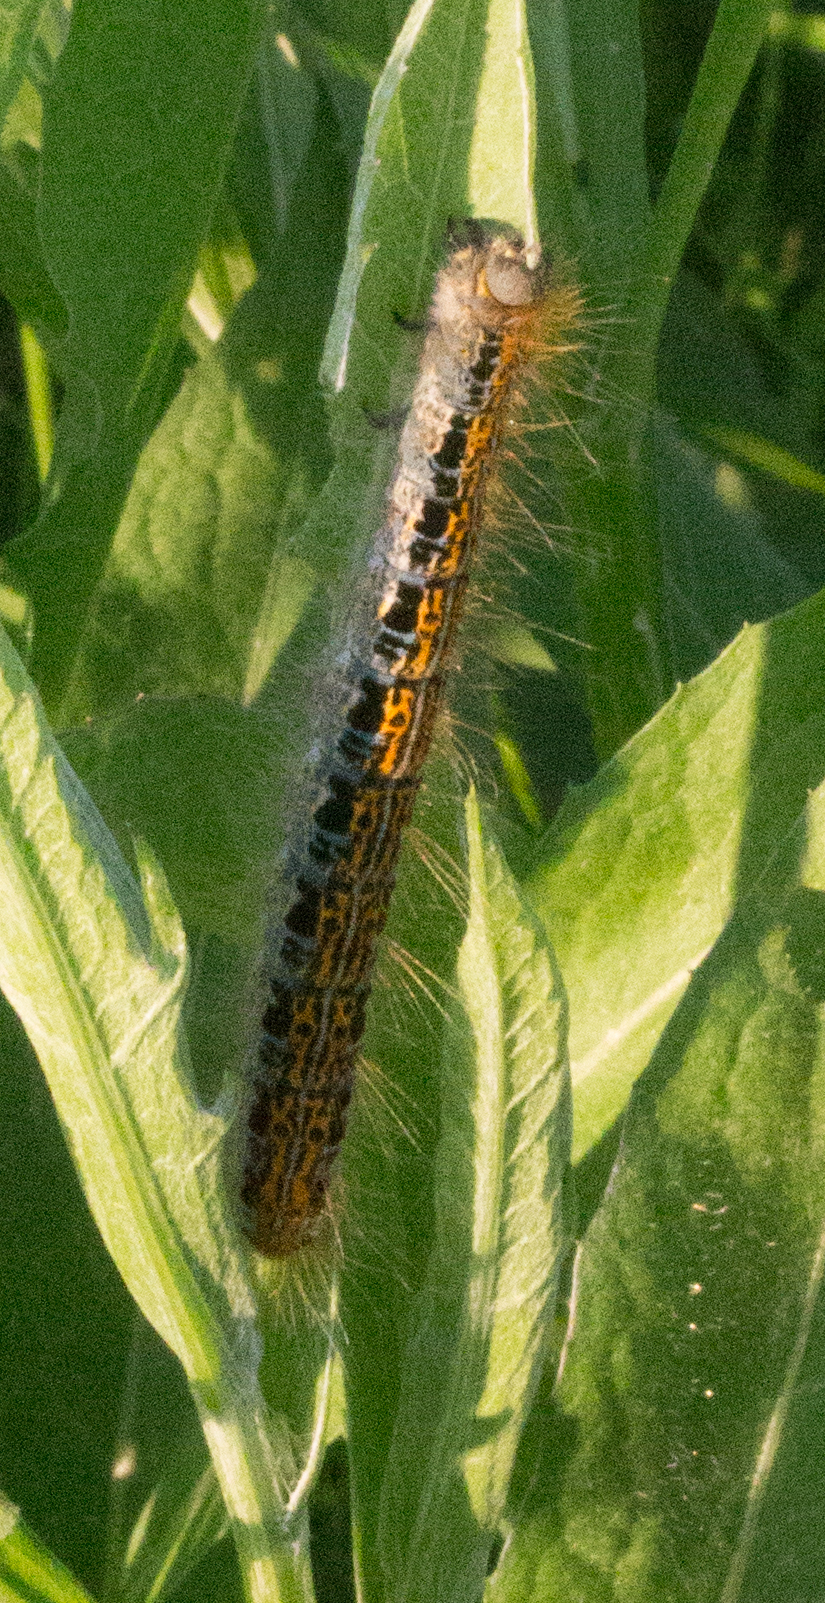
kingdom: Animalia
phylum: Arthropoda
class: Insecta
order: Lepidoptera
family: Lasiocampidae
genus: Malacosoma
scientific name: Malacosoma castrense
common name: Ground lackey
